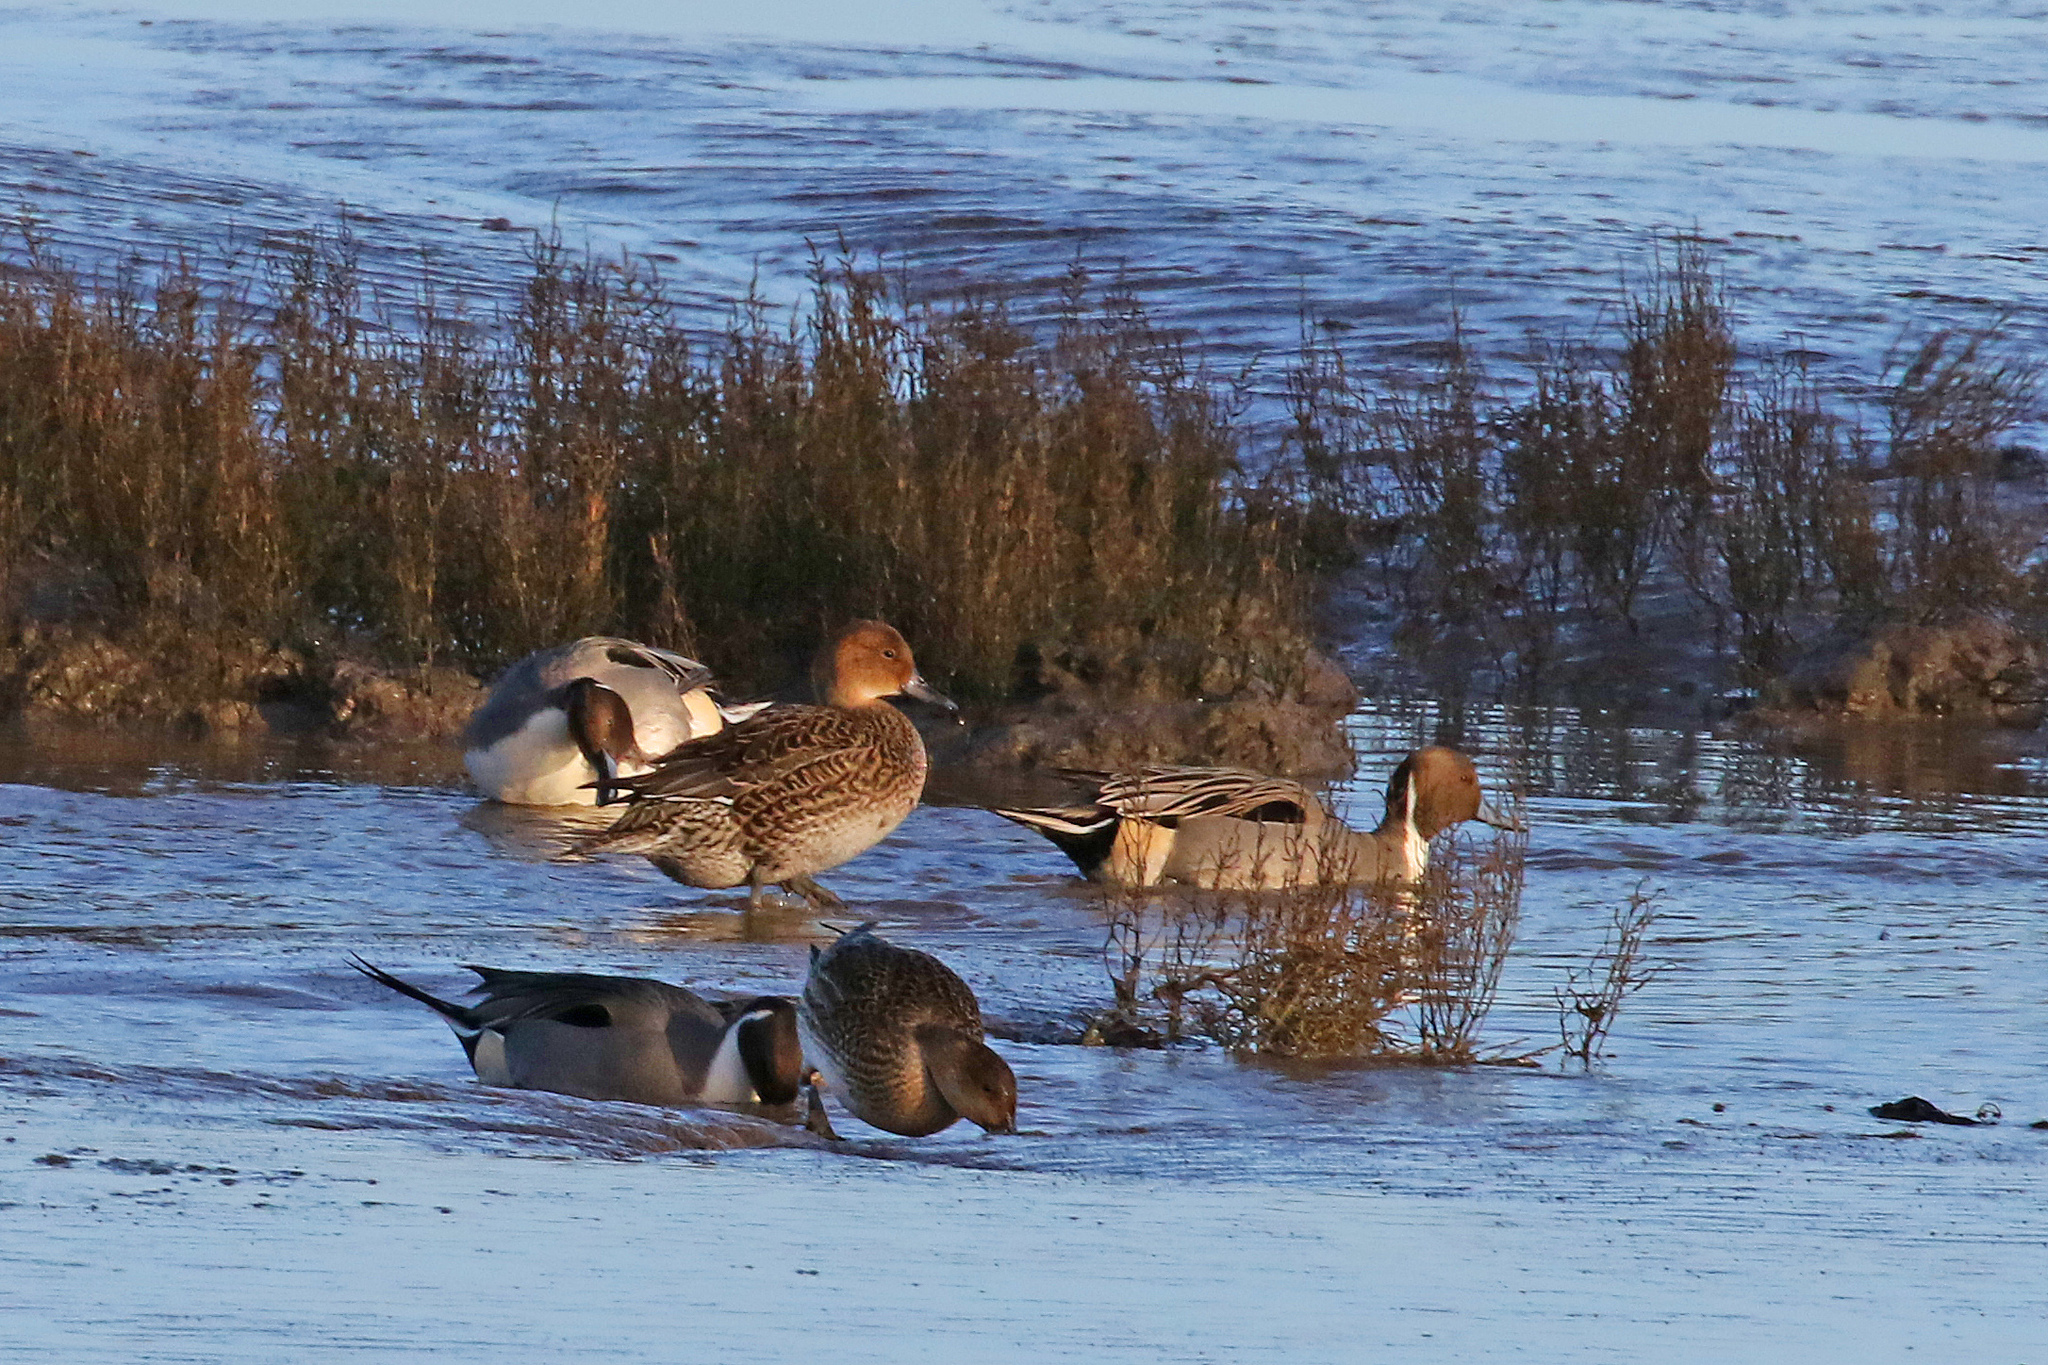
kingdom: Animalia
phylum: Chordata
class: Aves
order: Anseriformes
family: Anatidae
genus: Anas
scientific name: Anas acuta
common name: Northern pintail
